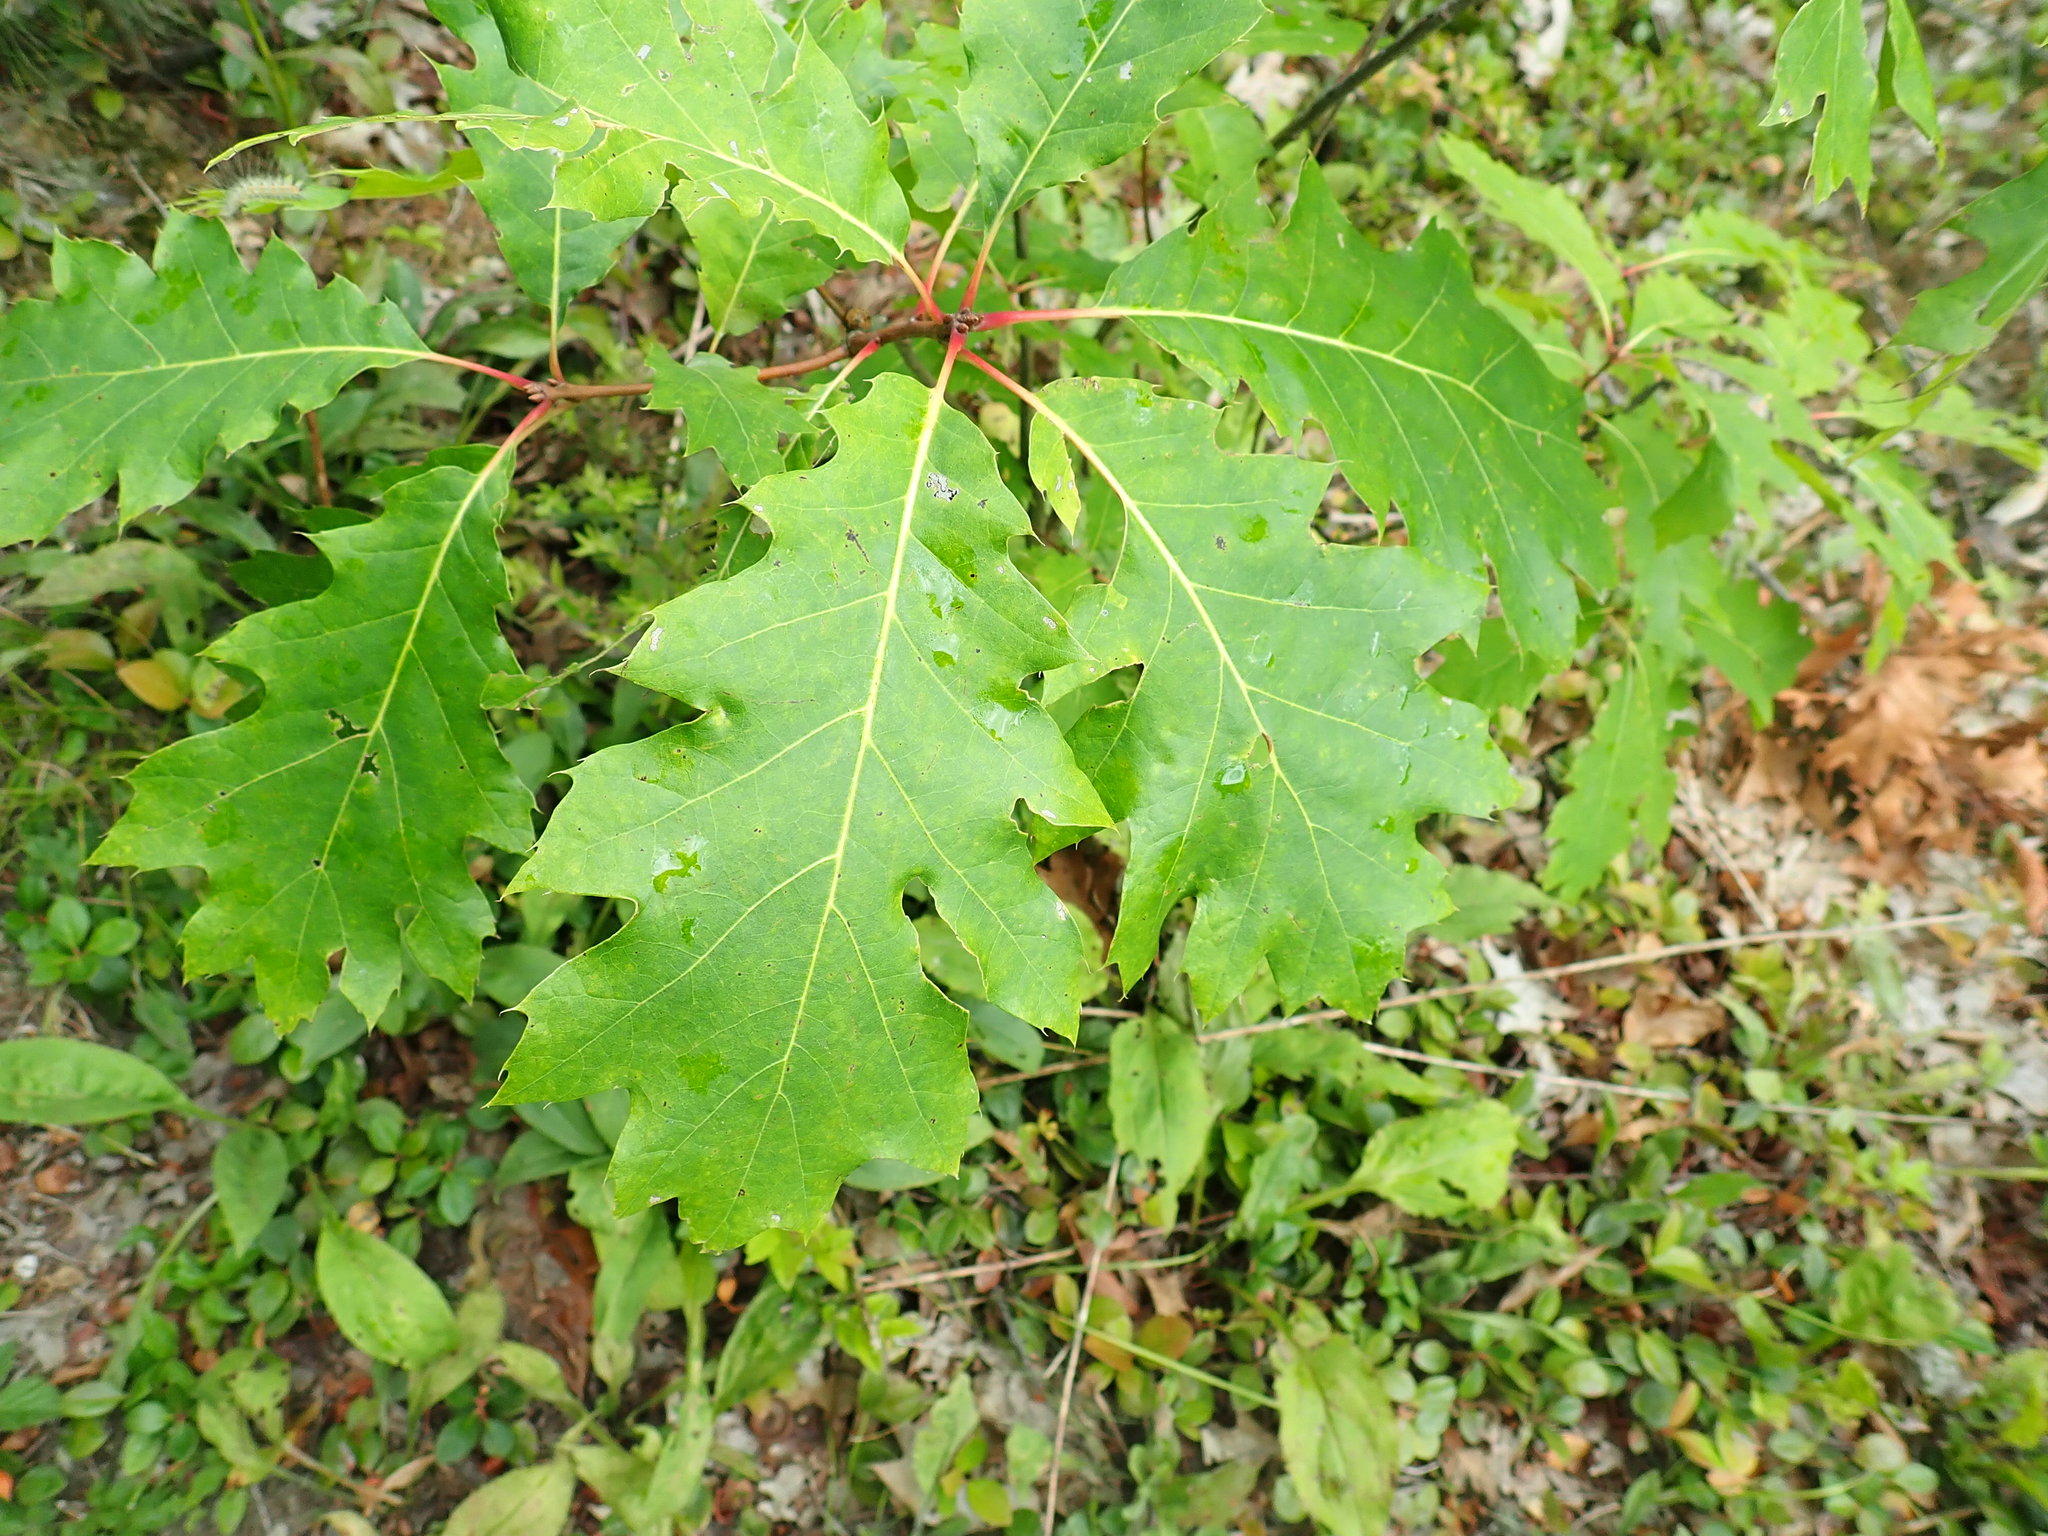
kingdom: Plantae
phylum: Tracheophyta
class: Magnoliopsida
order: Fagales
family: Fagaceae
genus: Quercus
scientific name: Quercus rubra
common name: Red oak
